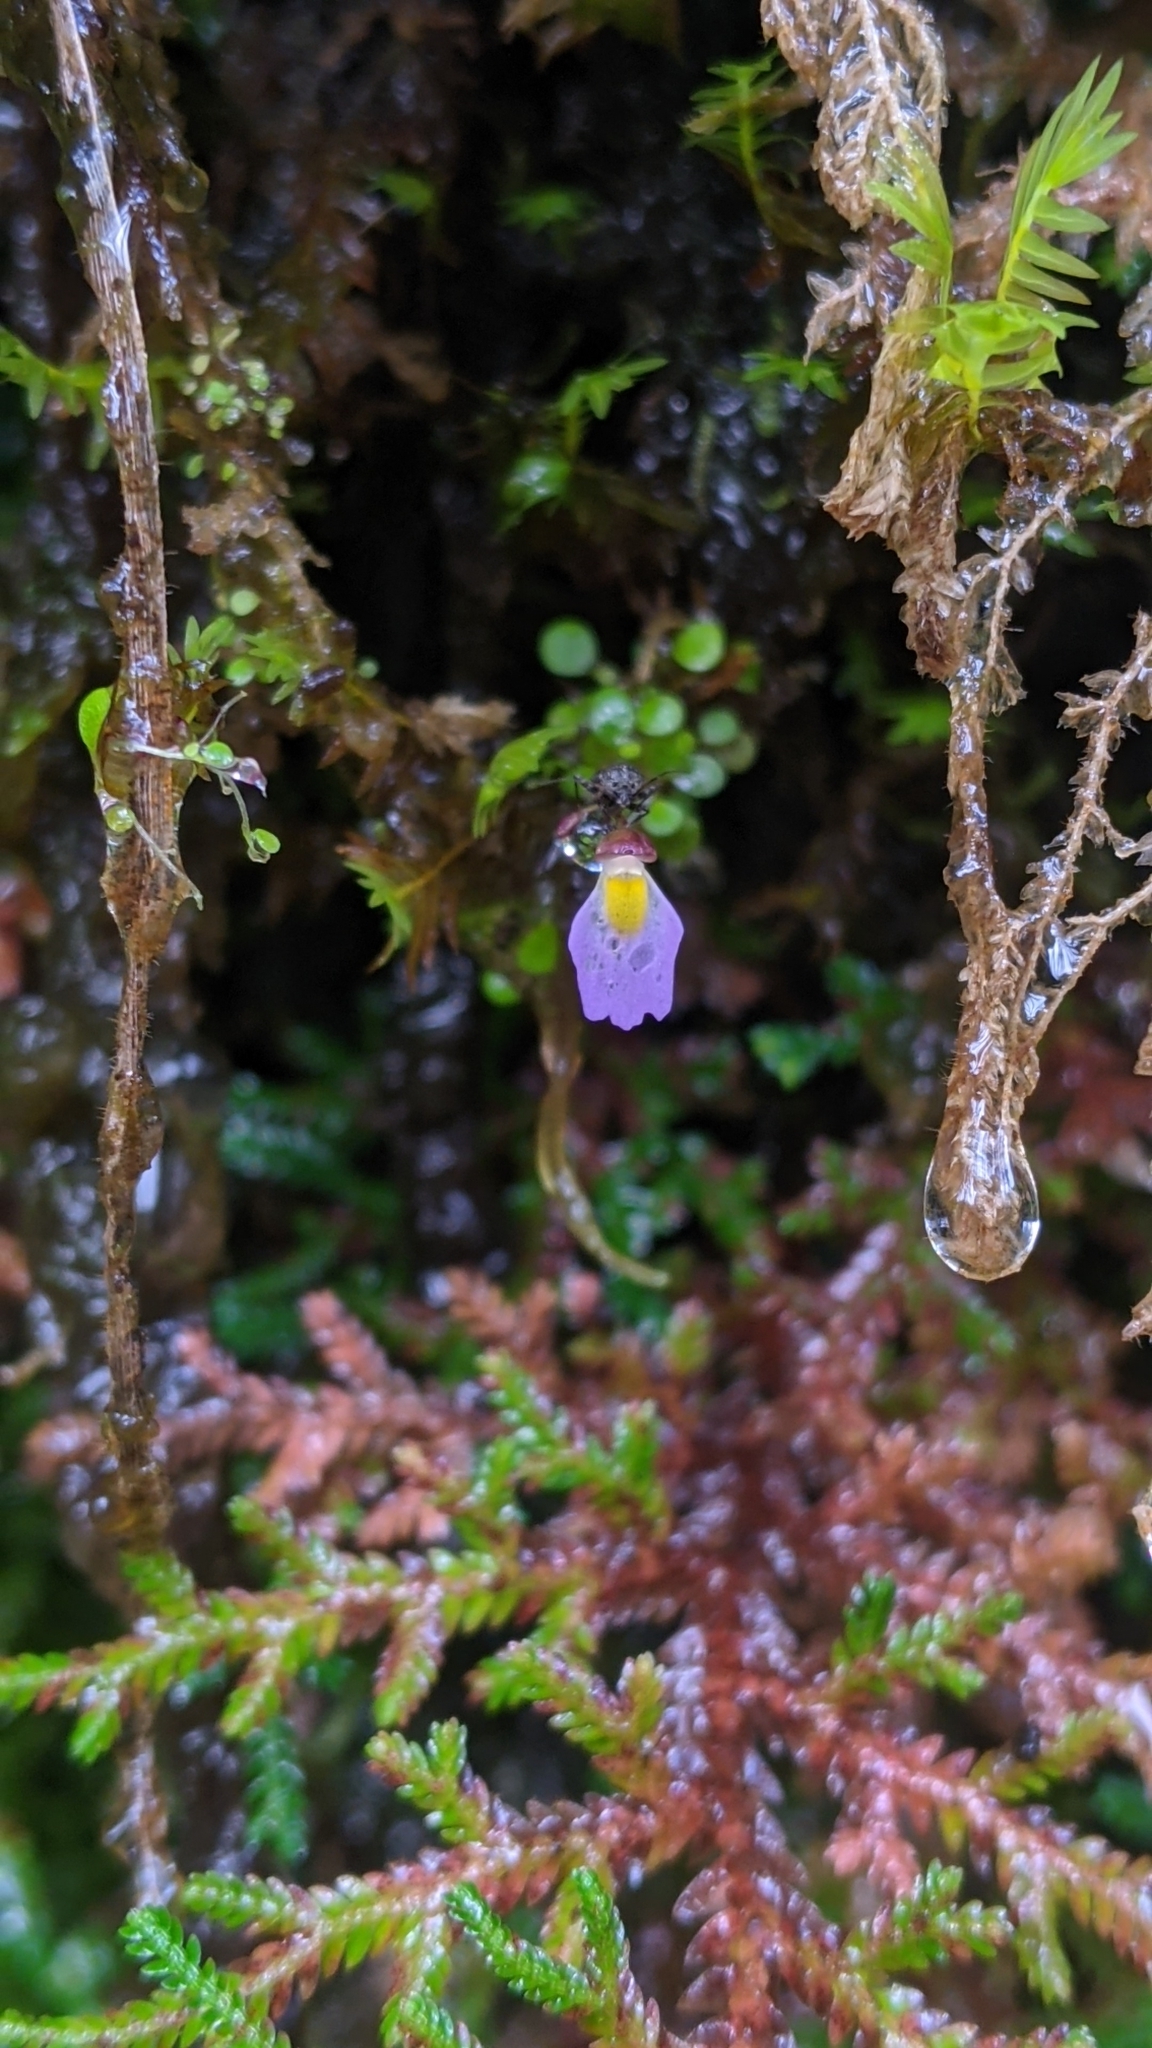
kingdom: Plantae
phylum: Tracheophyta
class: Magnoliopsida
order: Lamiales
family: Lentibulariaceae
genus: Utricularia
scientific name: Utricularia striatula
